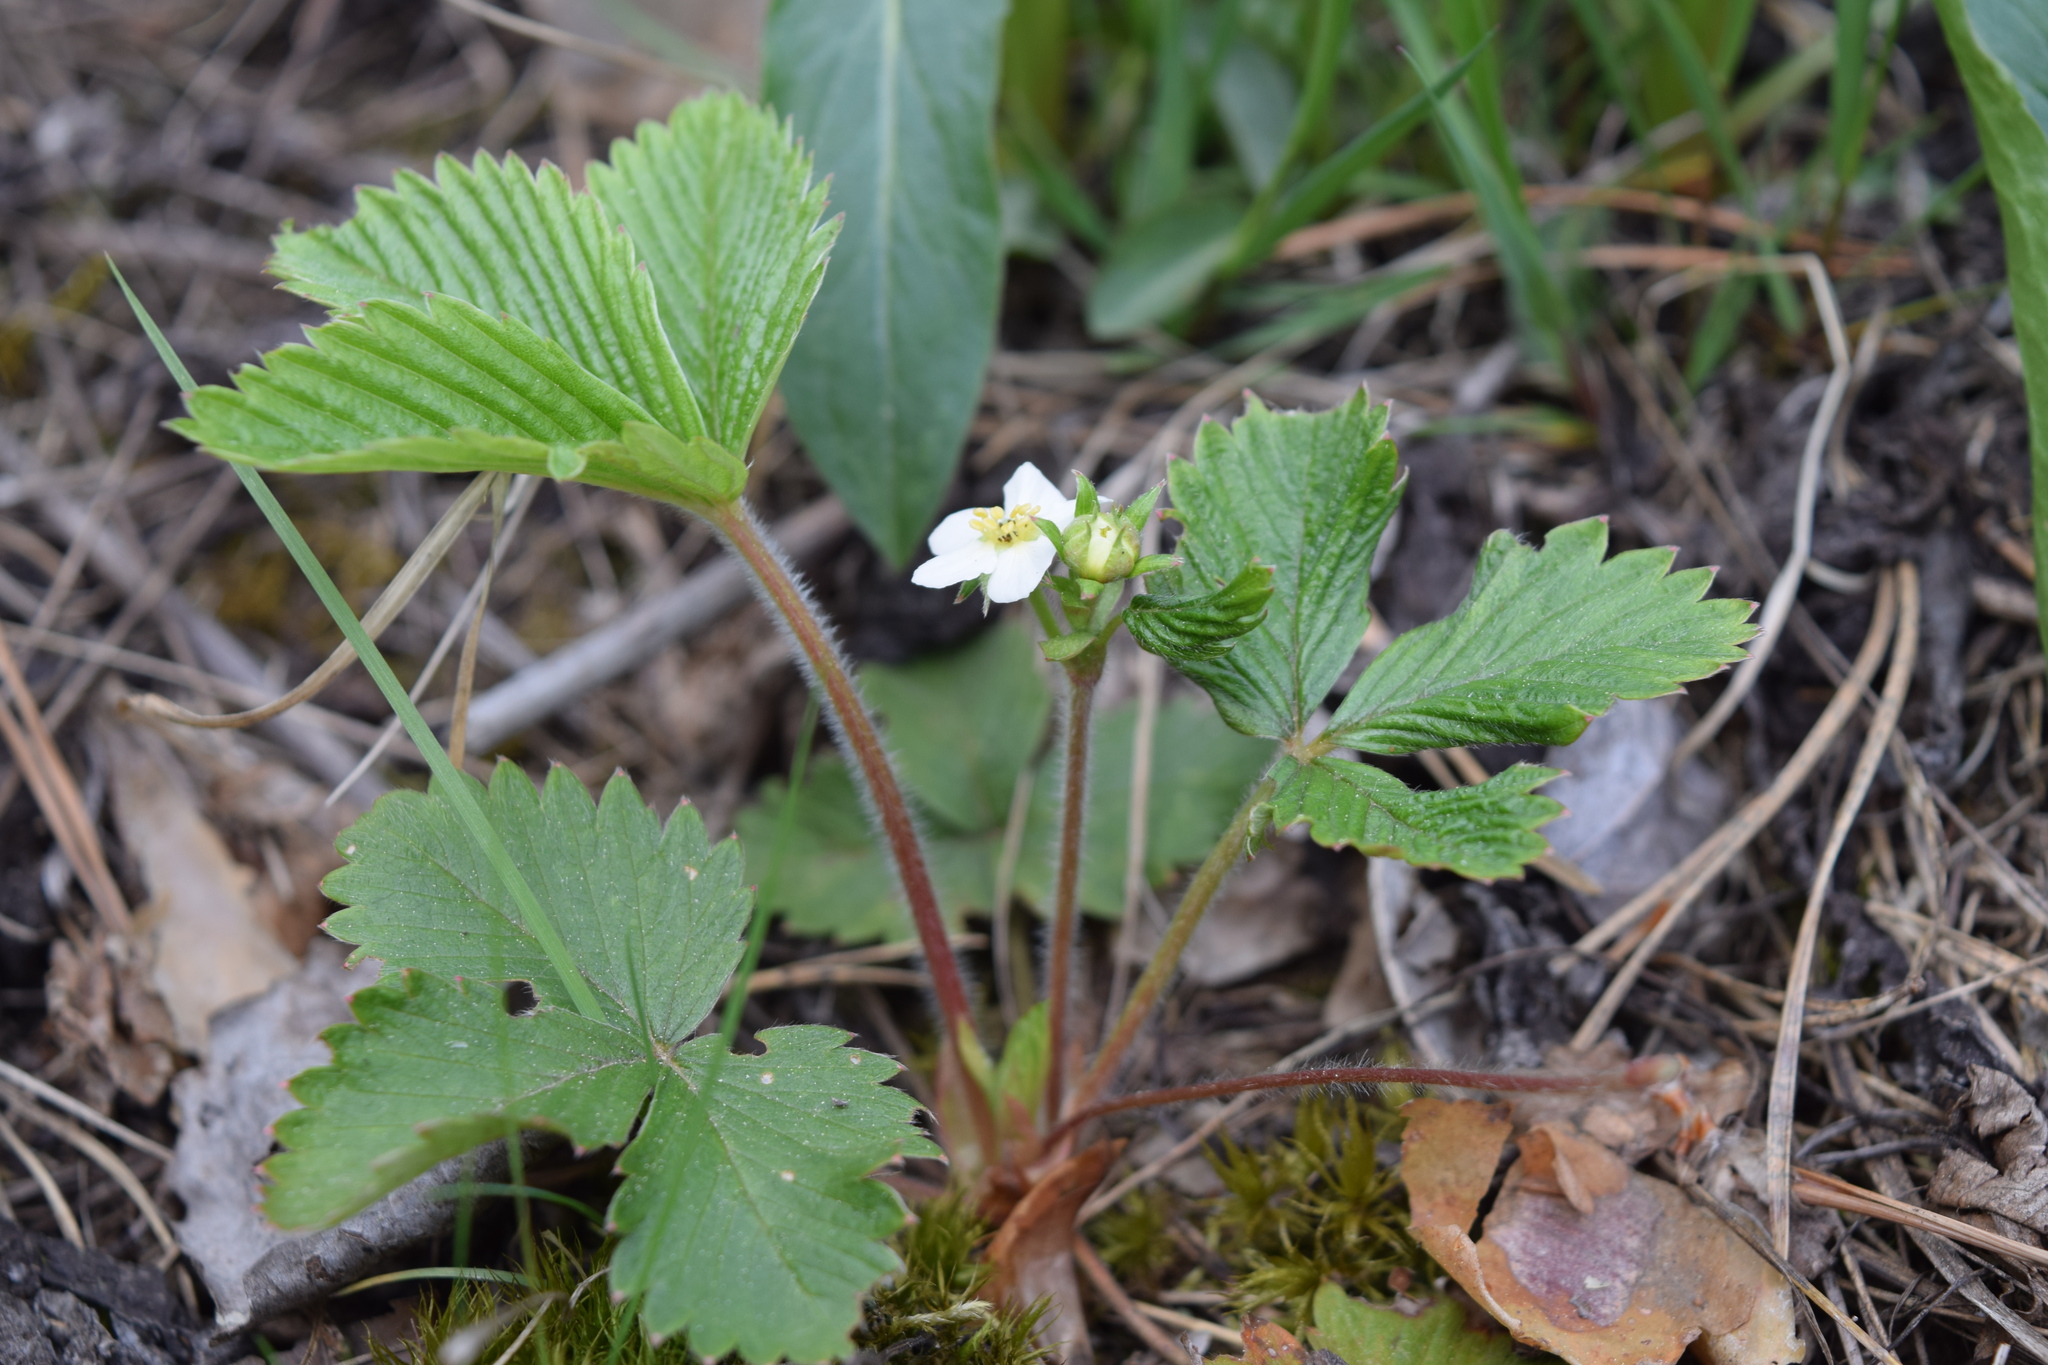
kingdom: Plantae
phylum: Tracheophyta
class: Magnoliopsida
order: Rosales
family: Rosaceae
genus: Fragaria
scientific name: Fragaria vesca
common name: Wild strawberry
